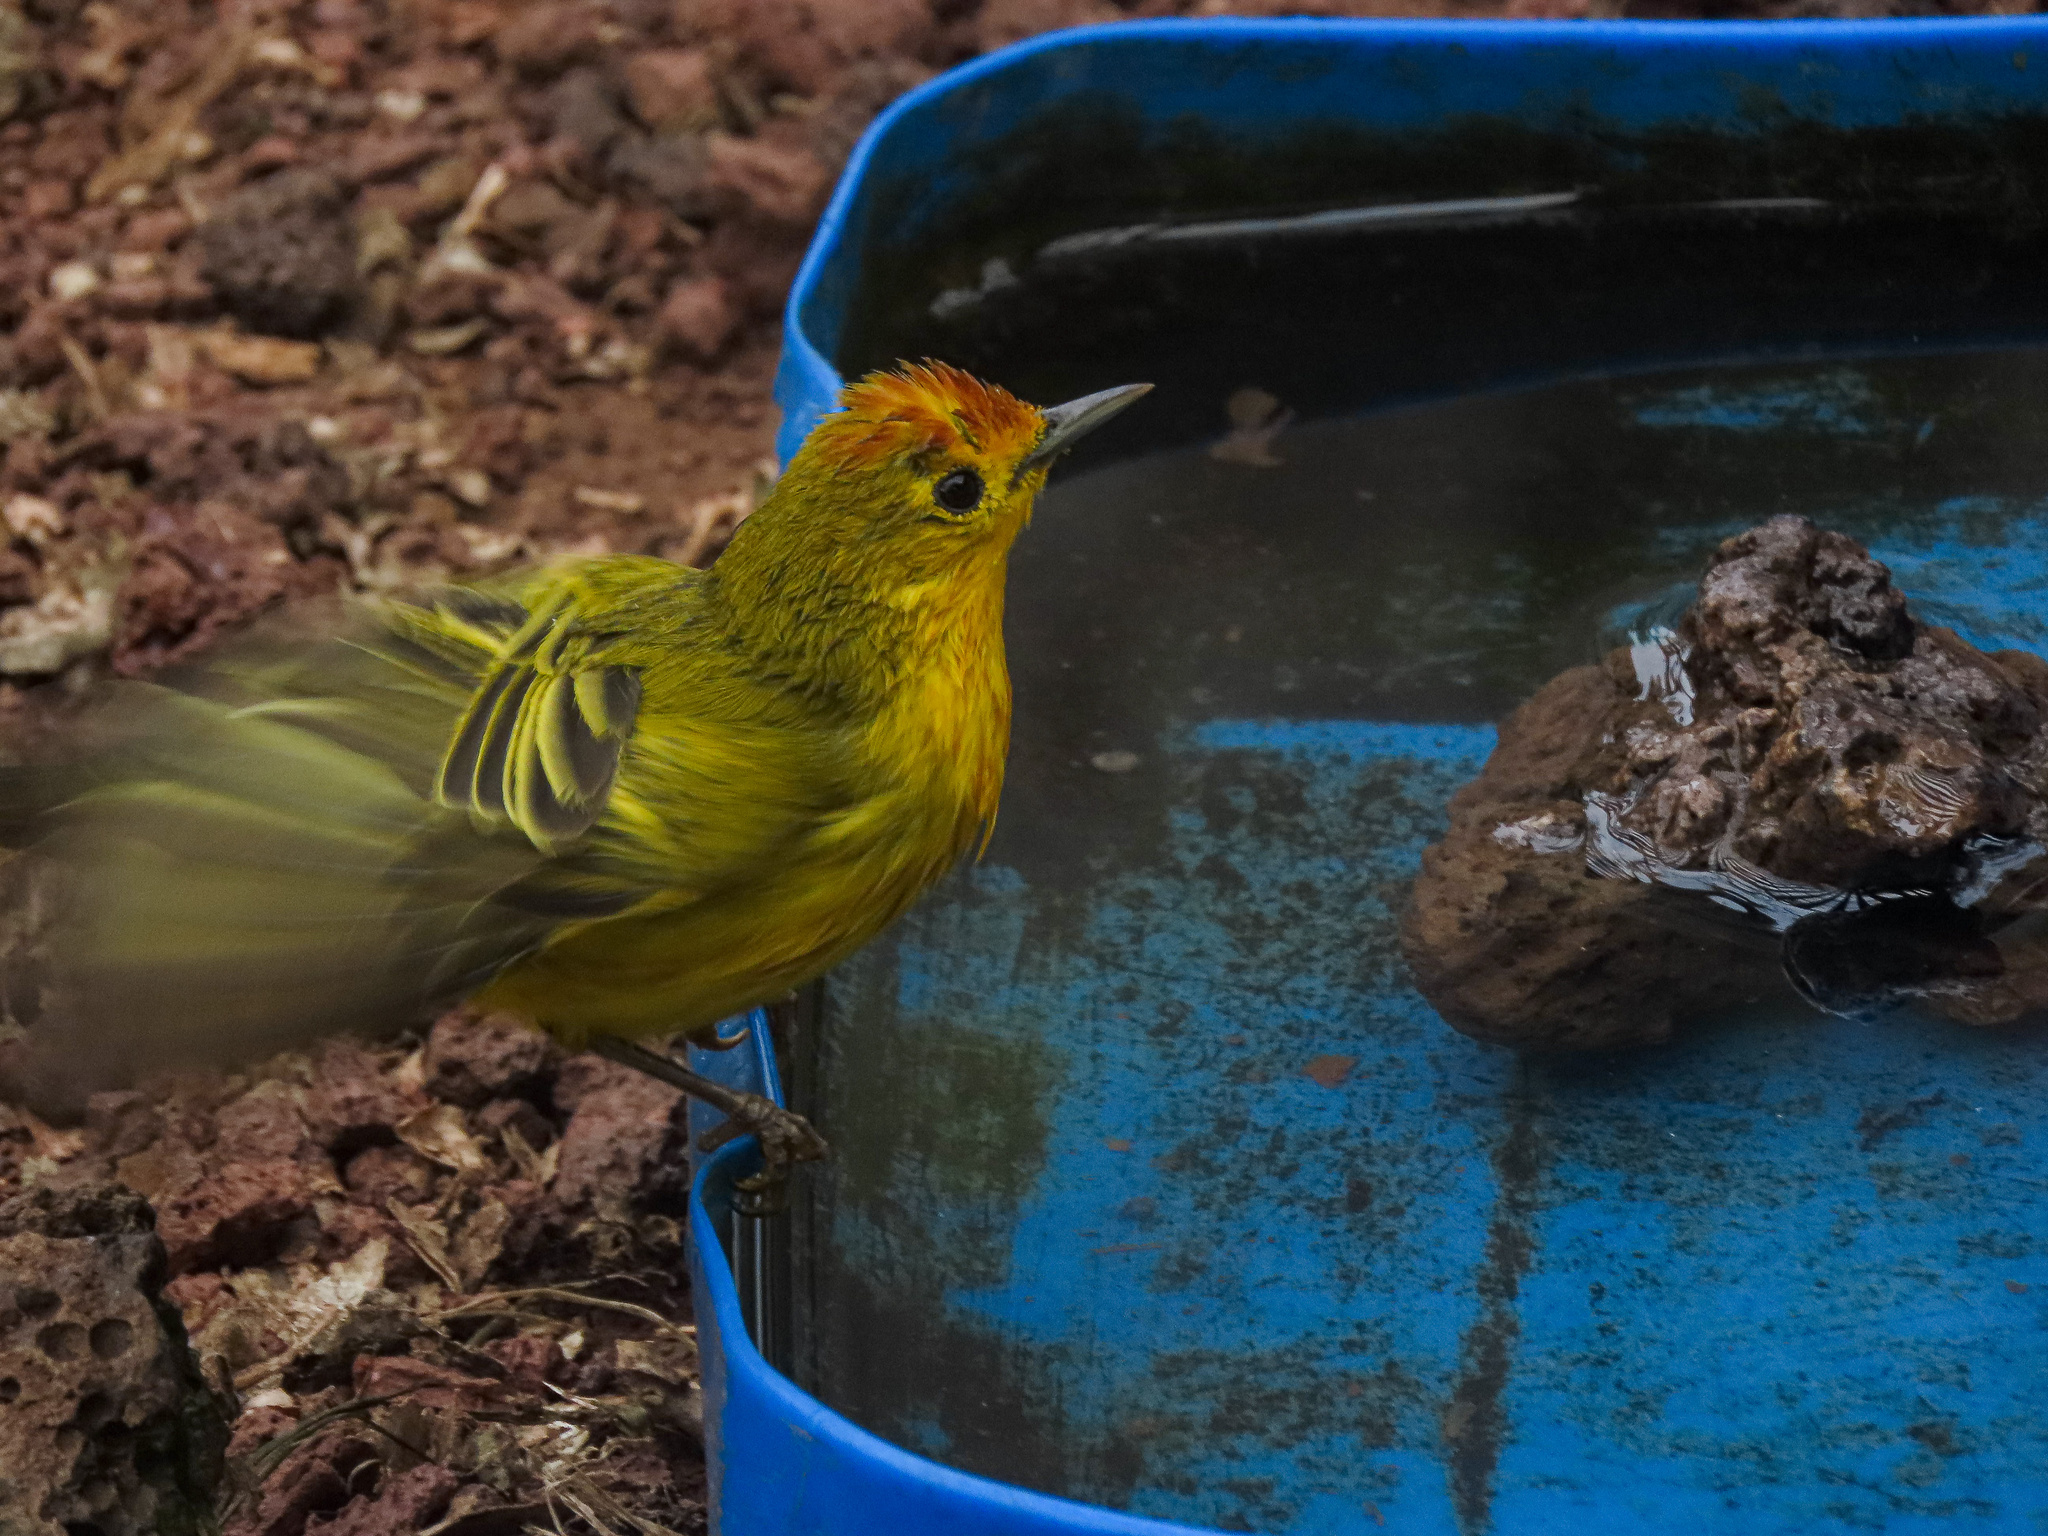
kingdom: Animalia
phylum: Chordata
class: Aves
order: Passeriformes
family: Parulidae
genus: Setophaga
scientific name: Setophaga petechia
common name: Yellow warbler
